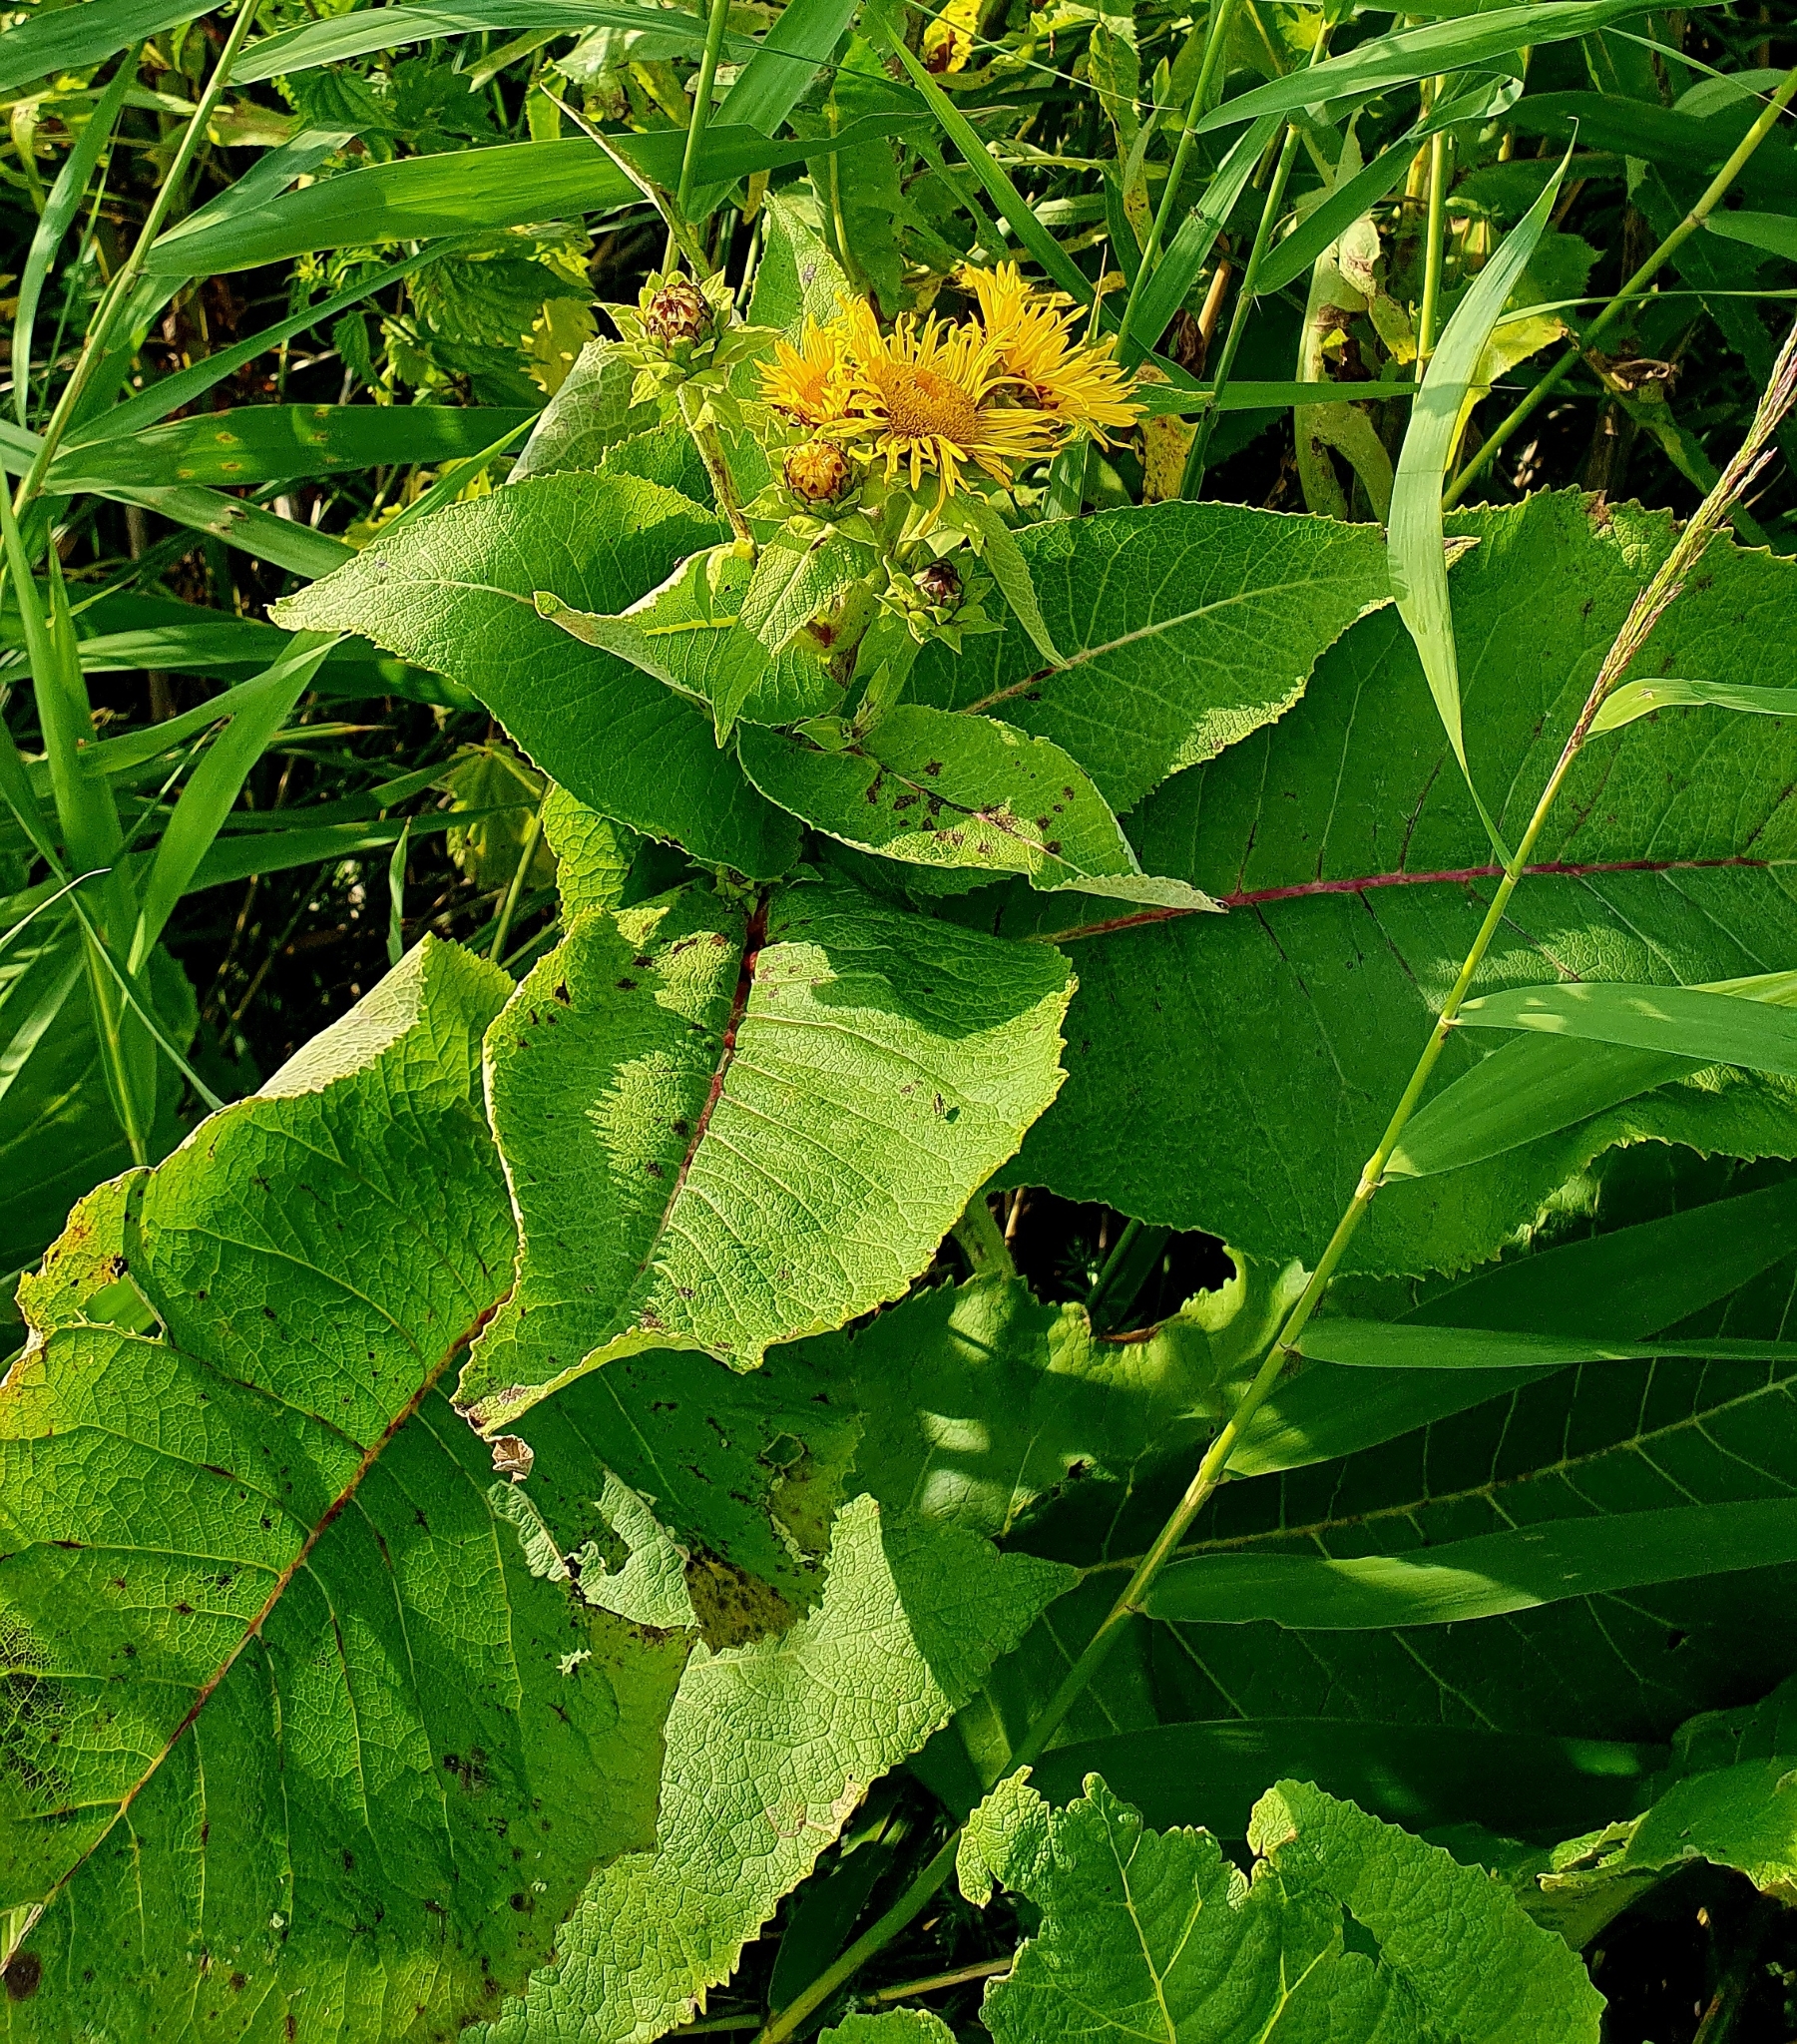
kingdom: Plantae
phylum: Tracheophyta
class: Magnoliopsida
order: Asterales
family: Asteraceae
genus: Inula
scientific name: Inula helenium
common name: Elecampane
